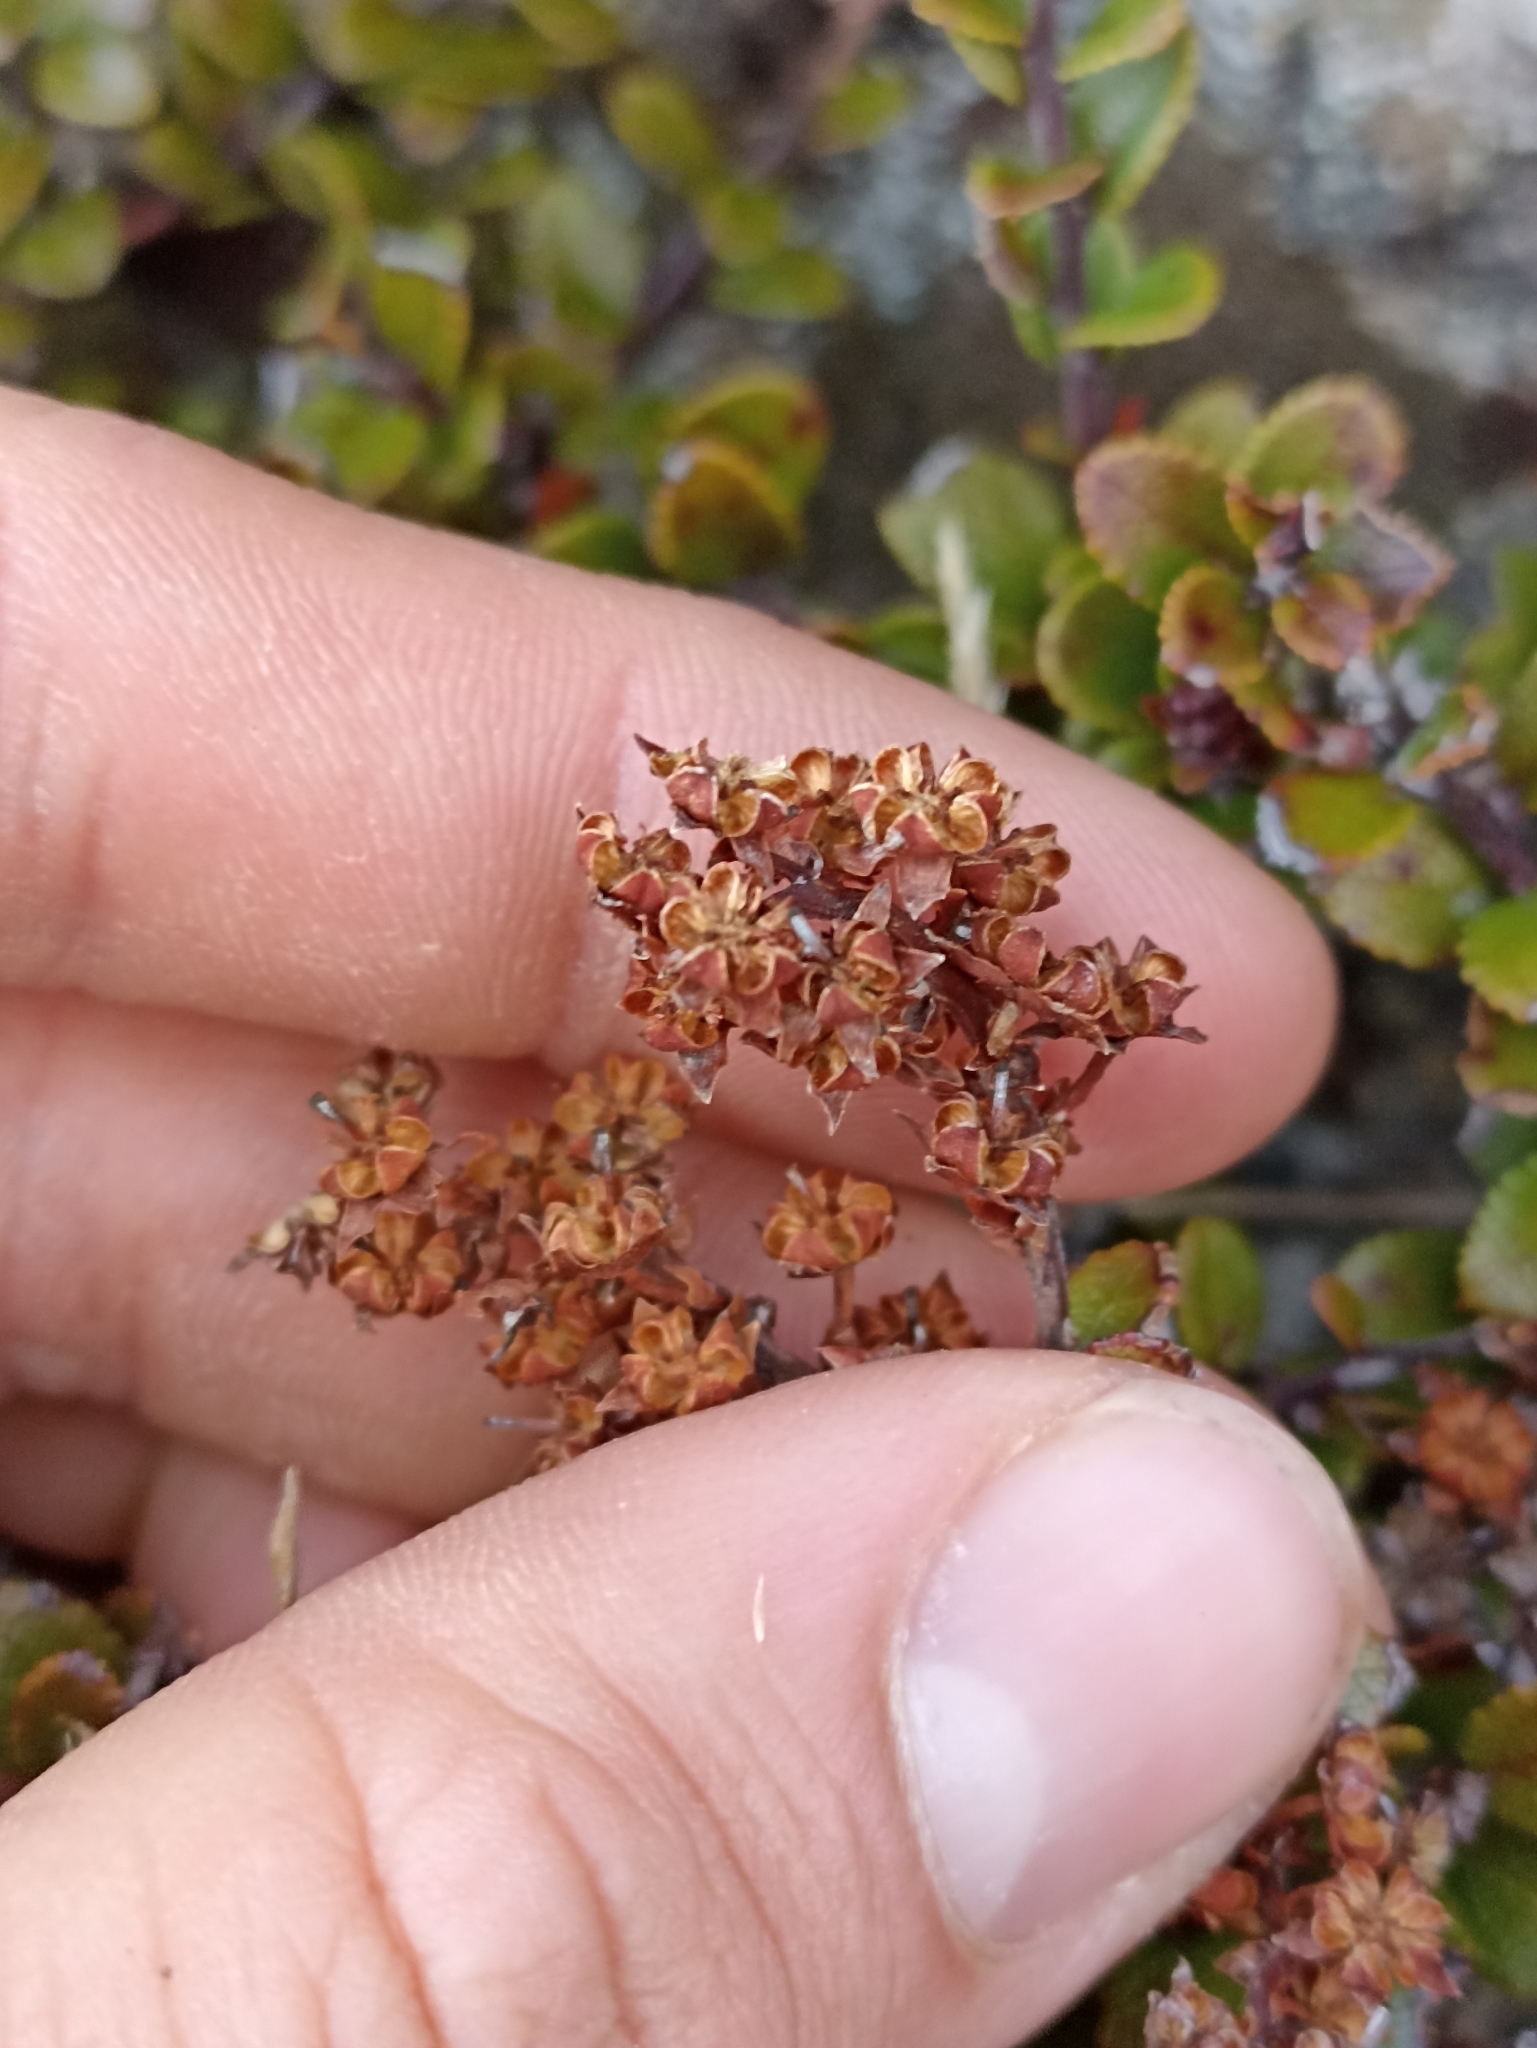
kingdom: Plantae
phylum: Tracheophyta
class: Magnoliopsida
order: Ericales
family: Ericaceae
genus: Gaultheria
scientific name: Gaultheria colensoi
